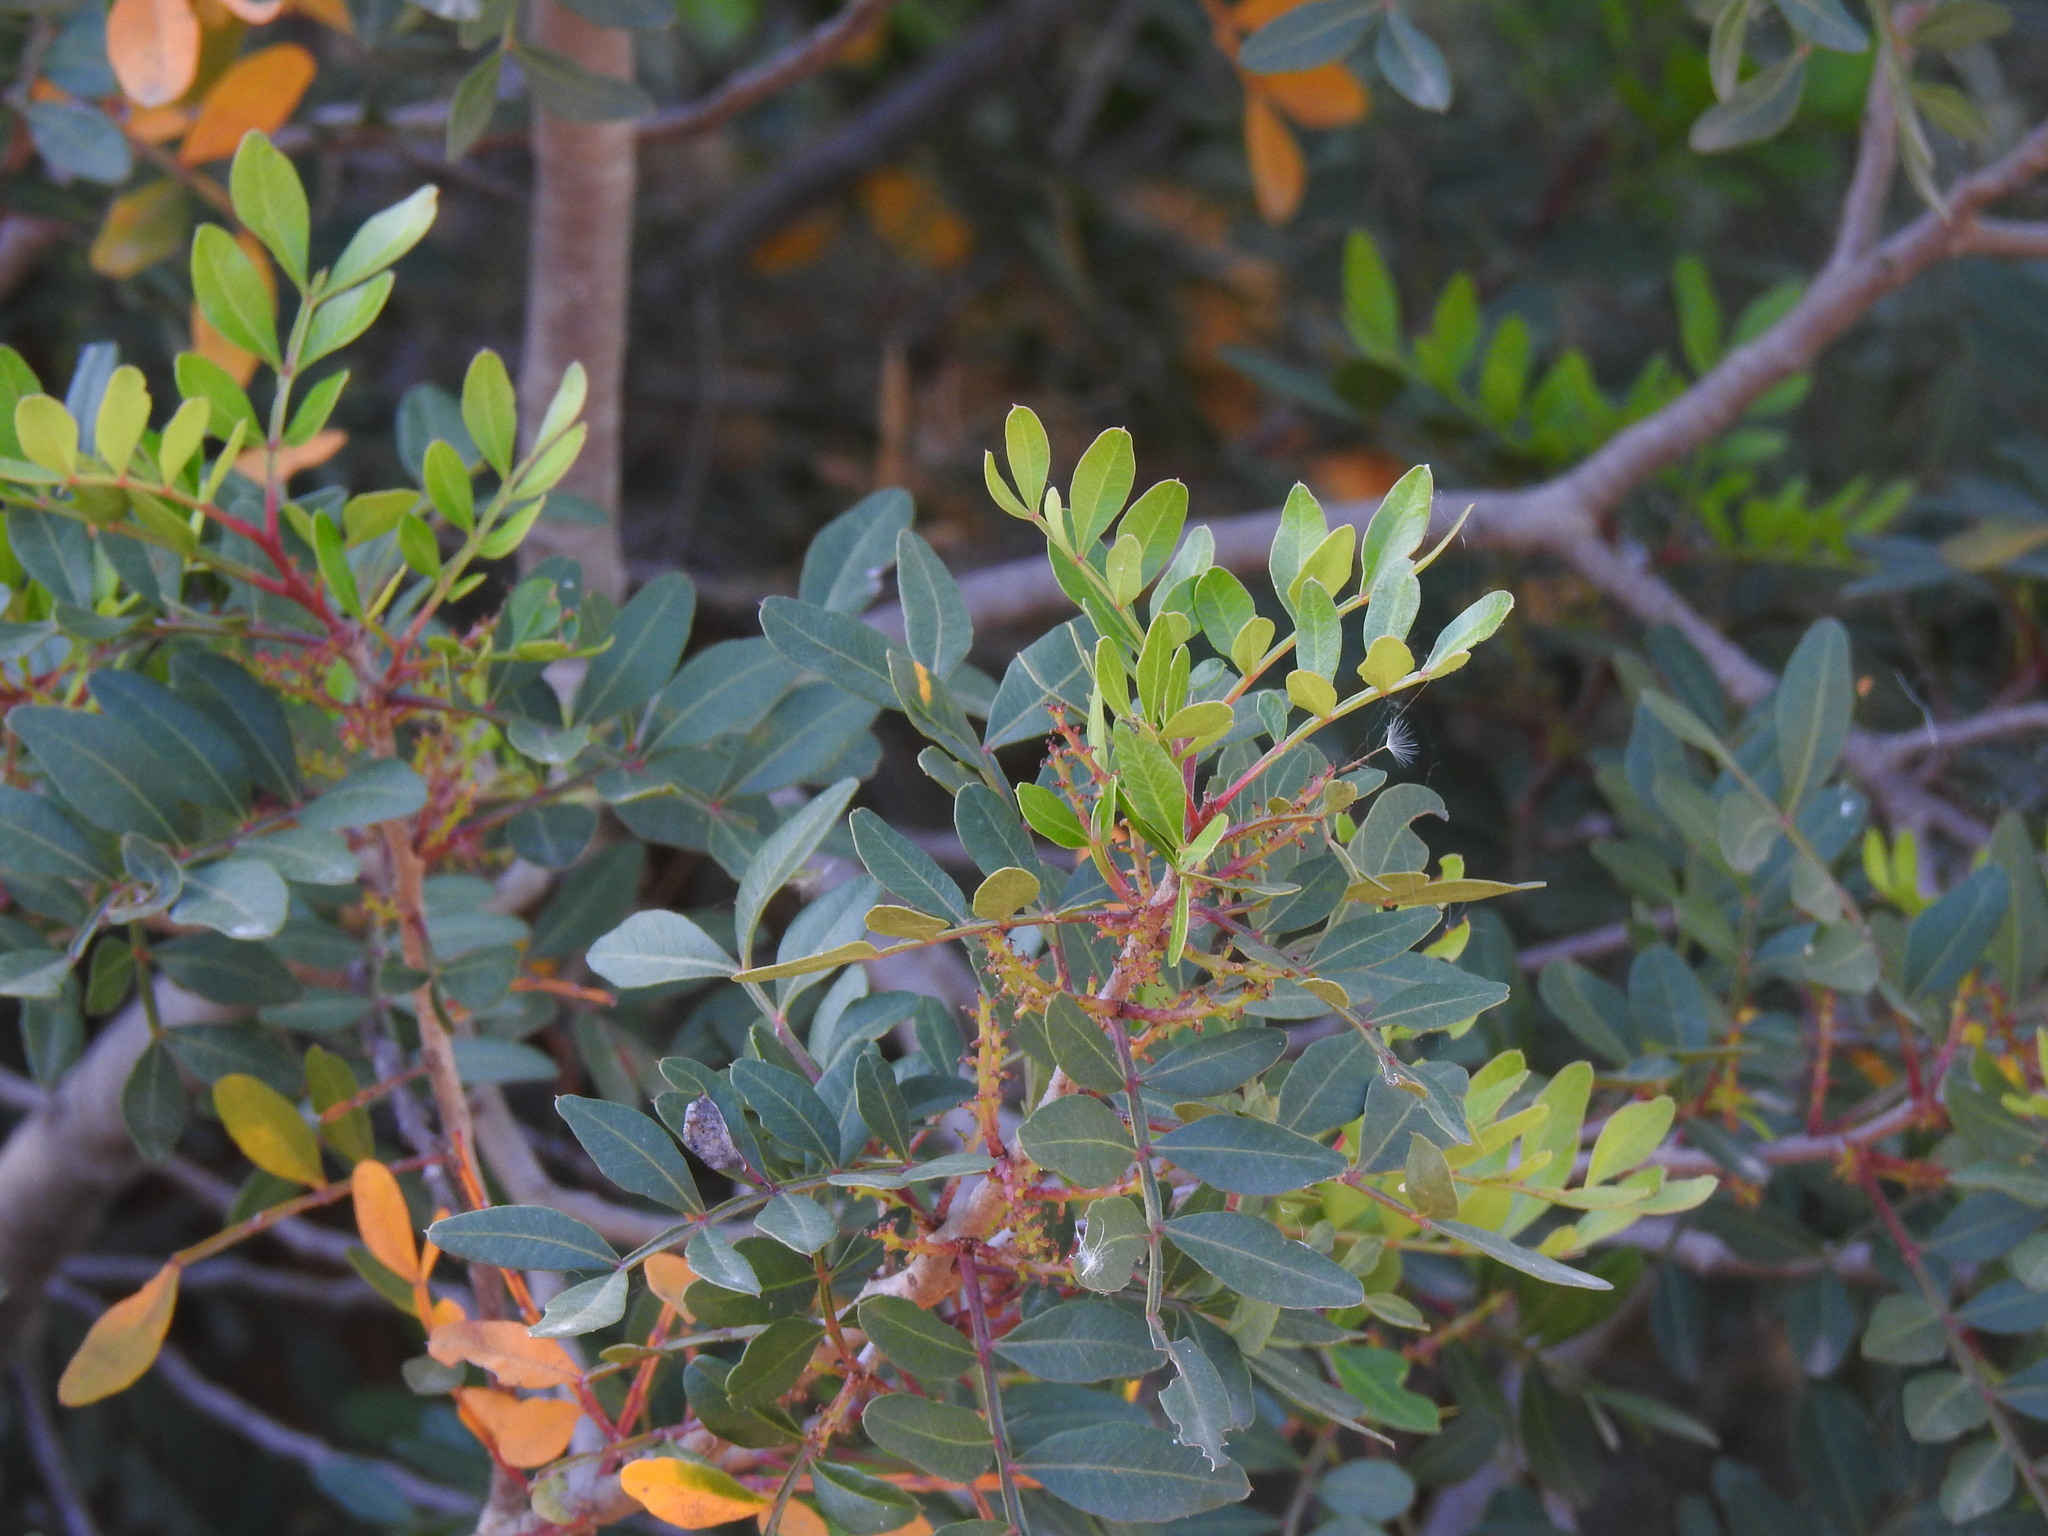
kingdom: Plantae
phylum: Tracheophyta
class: Magnoliopsida
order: Sapindales
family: Anacardiaceae
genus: Pistacia
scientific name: Pistacia lentiscus
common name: Lentisk
